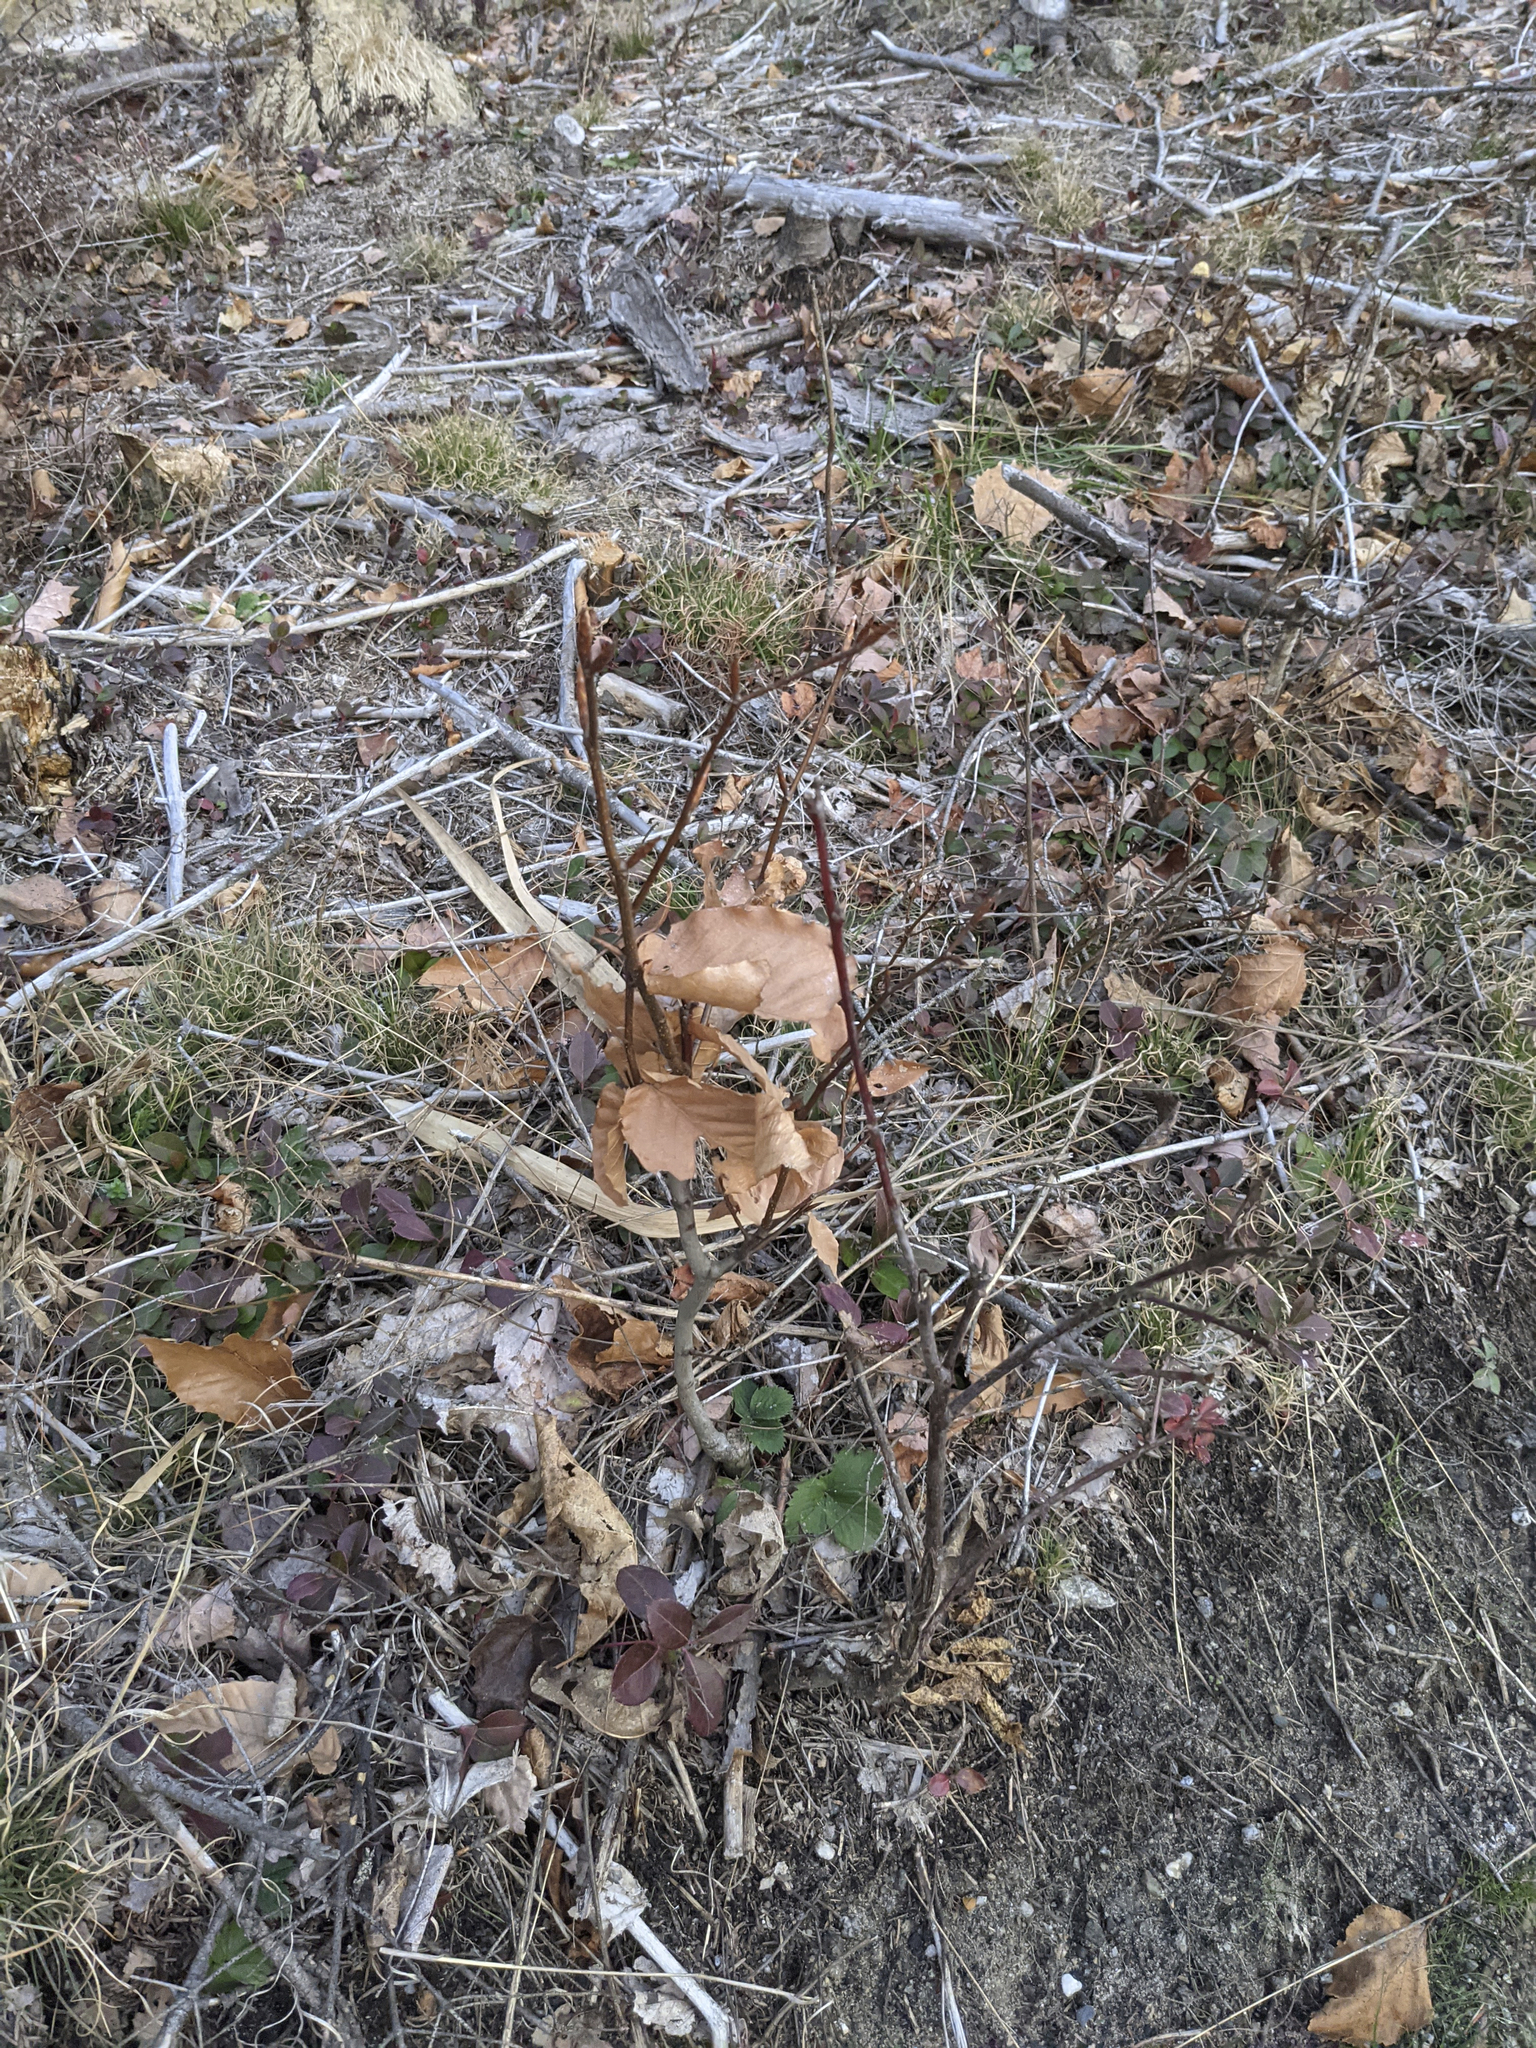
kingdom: Plantae
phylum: Tracheophyta
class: Magnoliopsida
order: Fagales
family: Fagaceae
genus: Fagus
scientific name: Fagus grandifolia
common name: American beech
